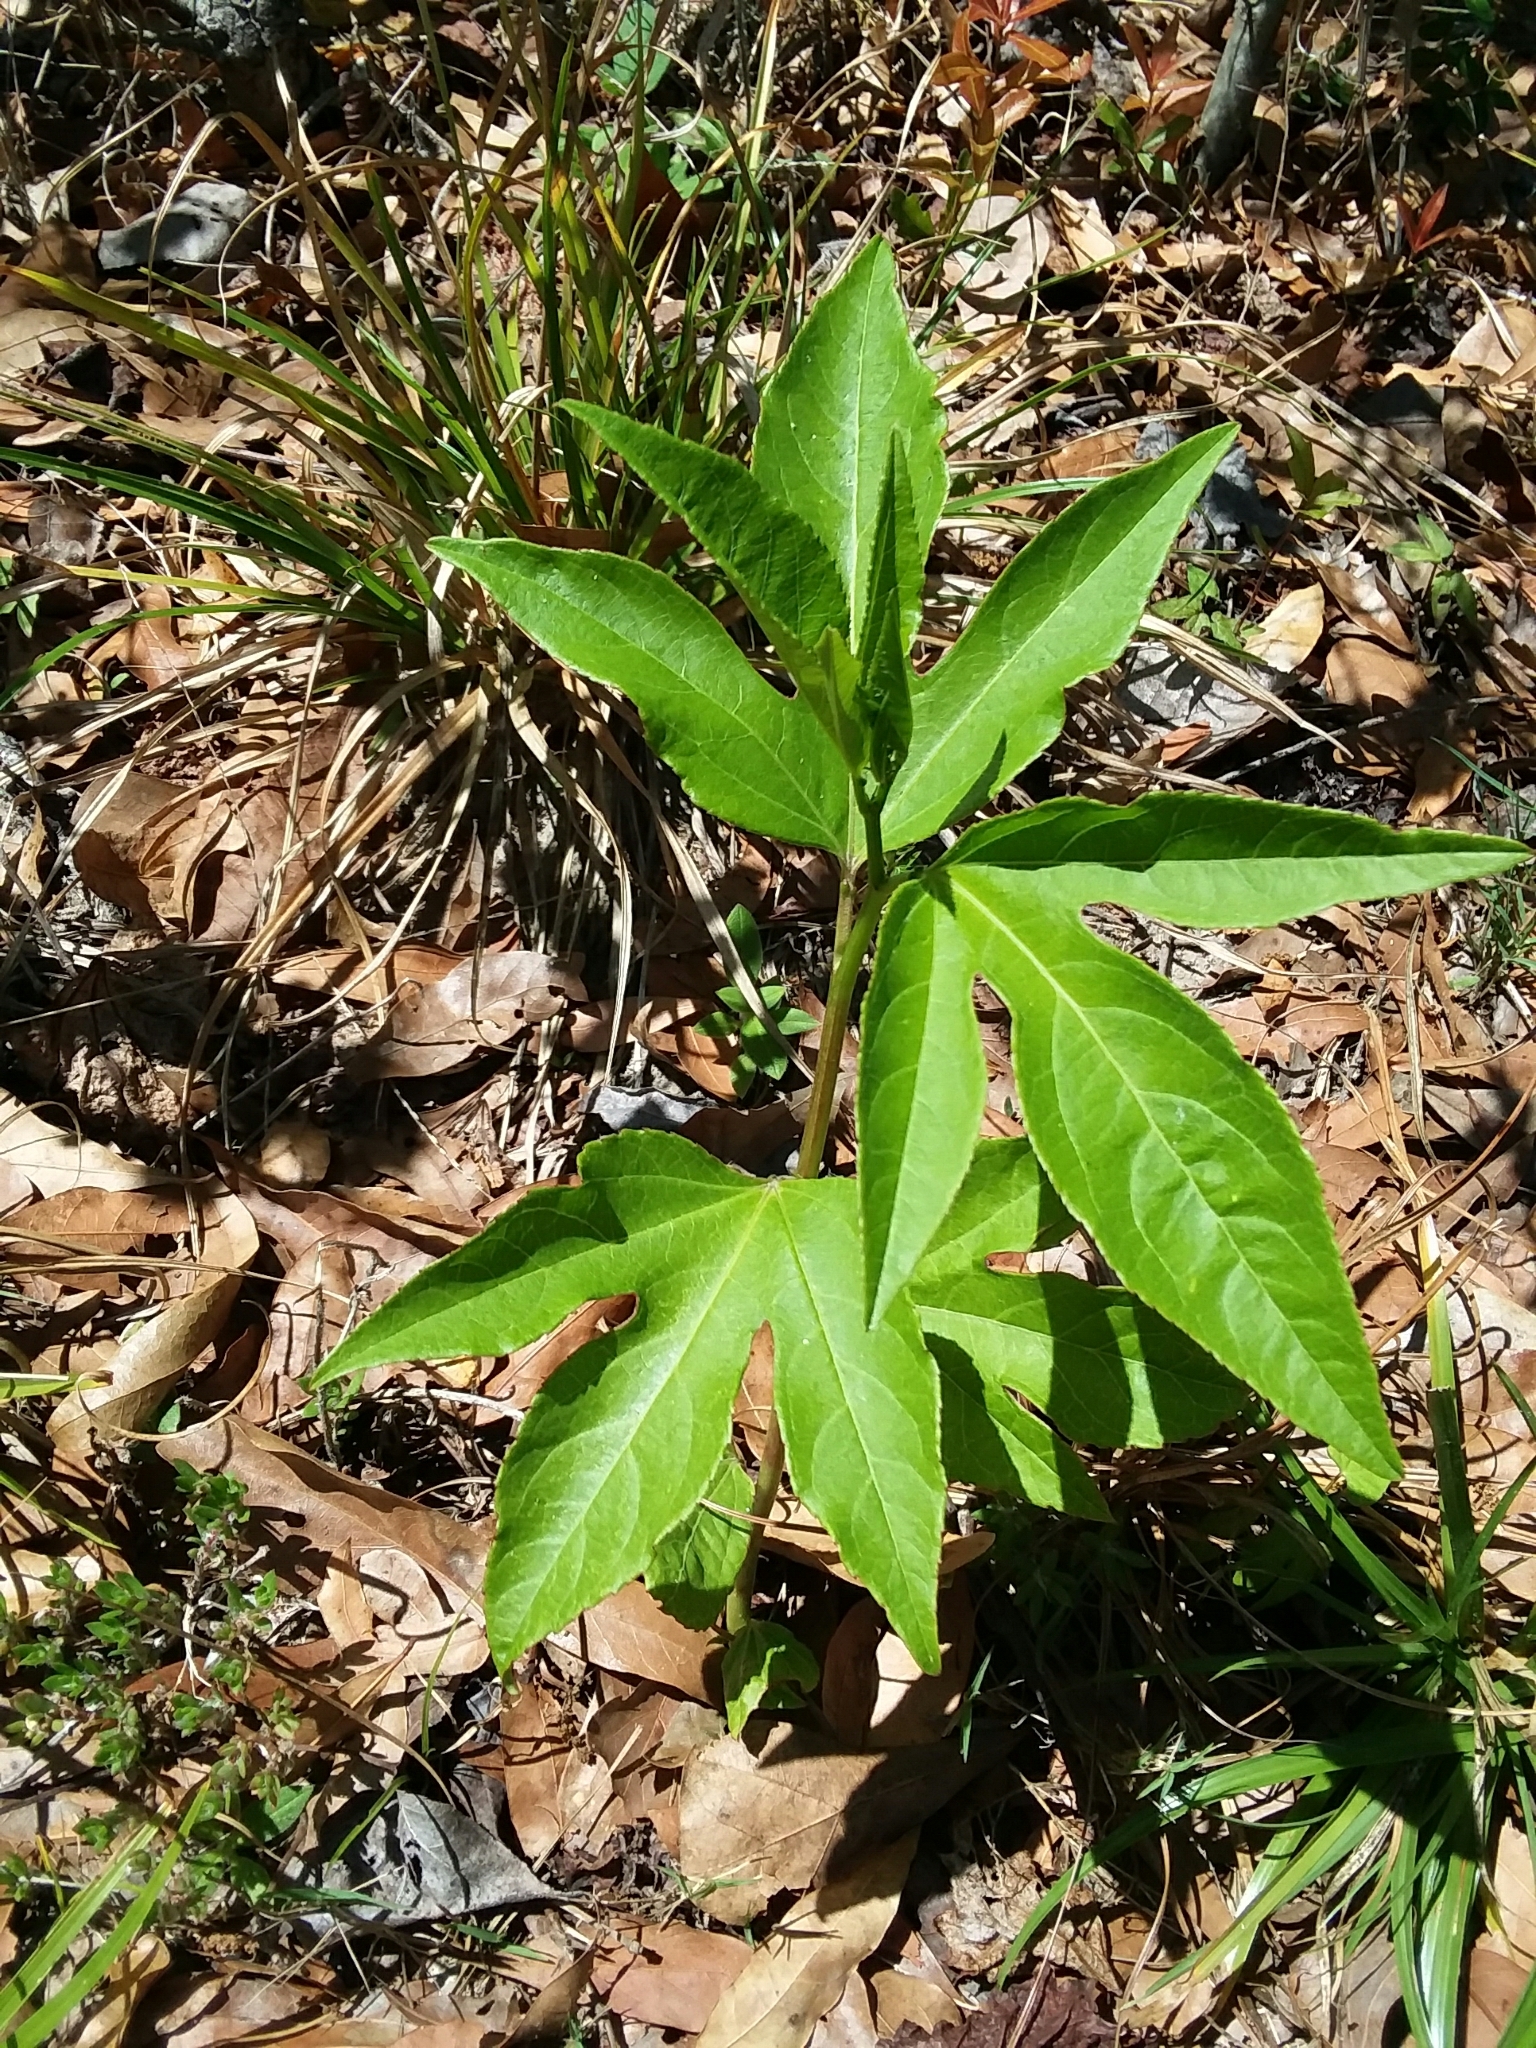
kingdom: Plantae
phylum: Tracheophyta
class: Magnoliopsida
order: Malpighiales
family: Passifloraceae
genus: Passiflora
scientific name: Passiflora incarnata
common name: Apricot-vine
